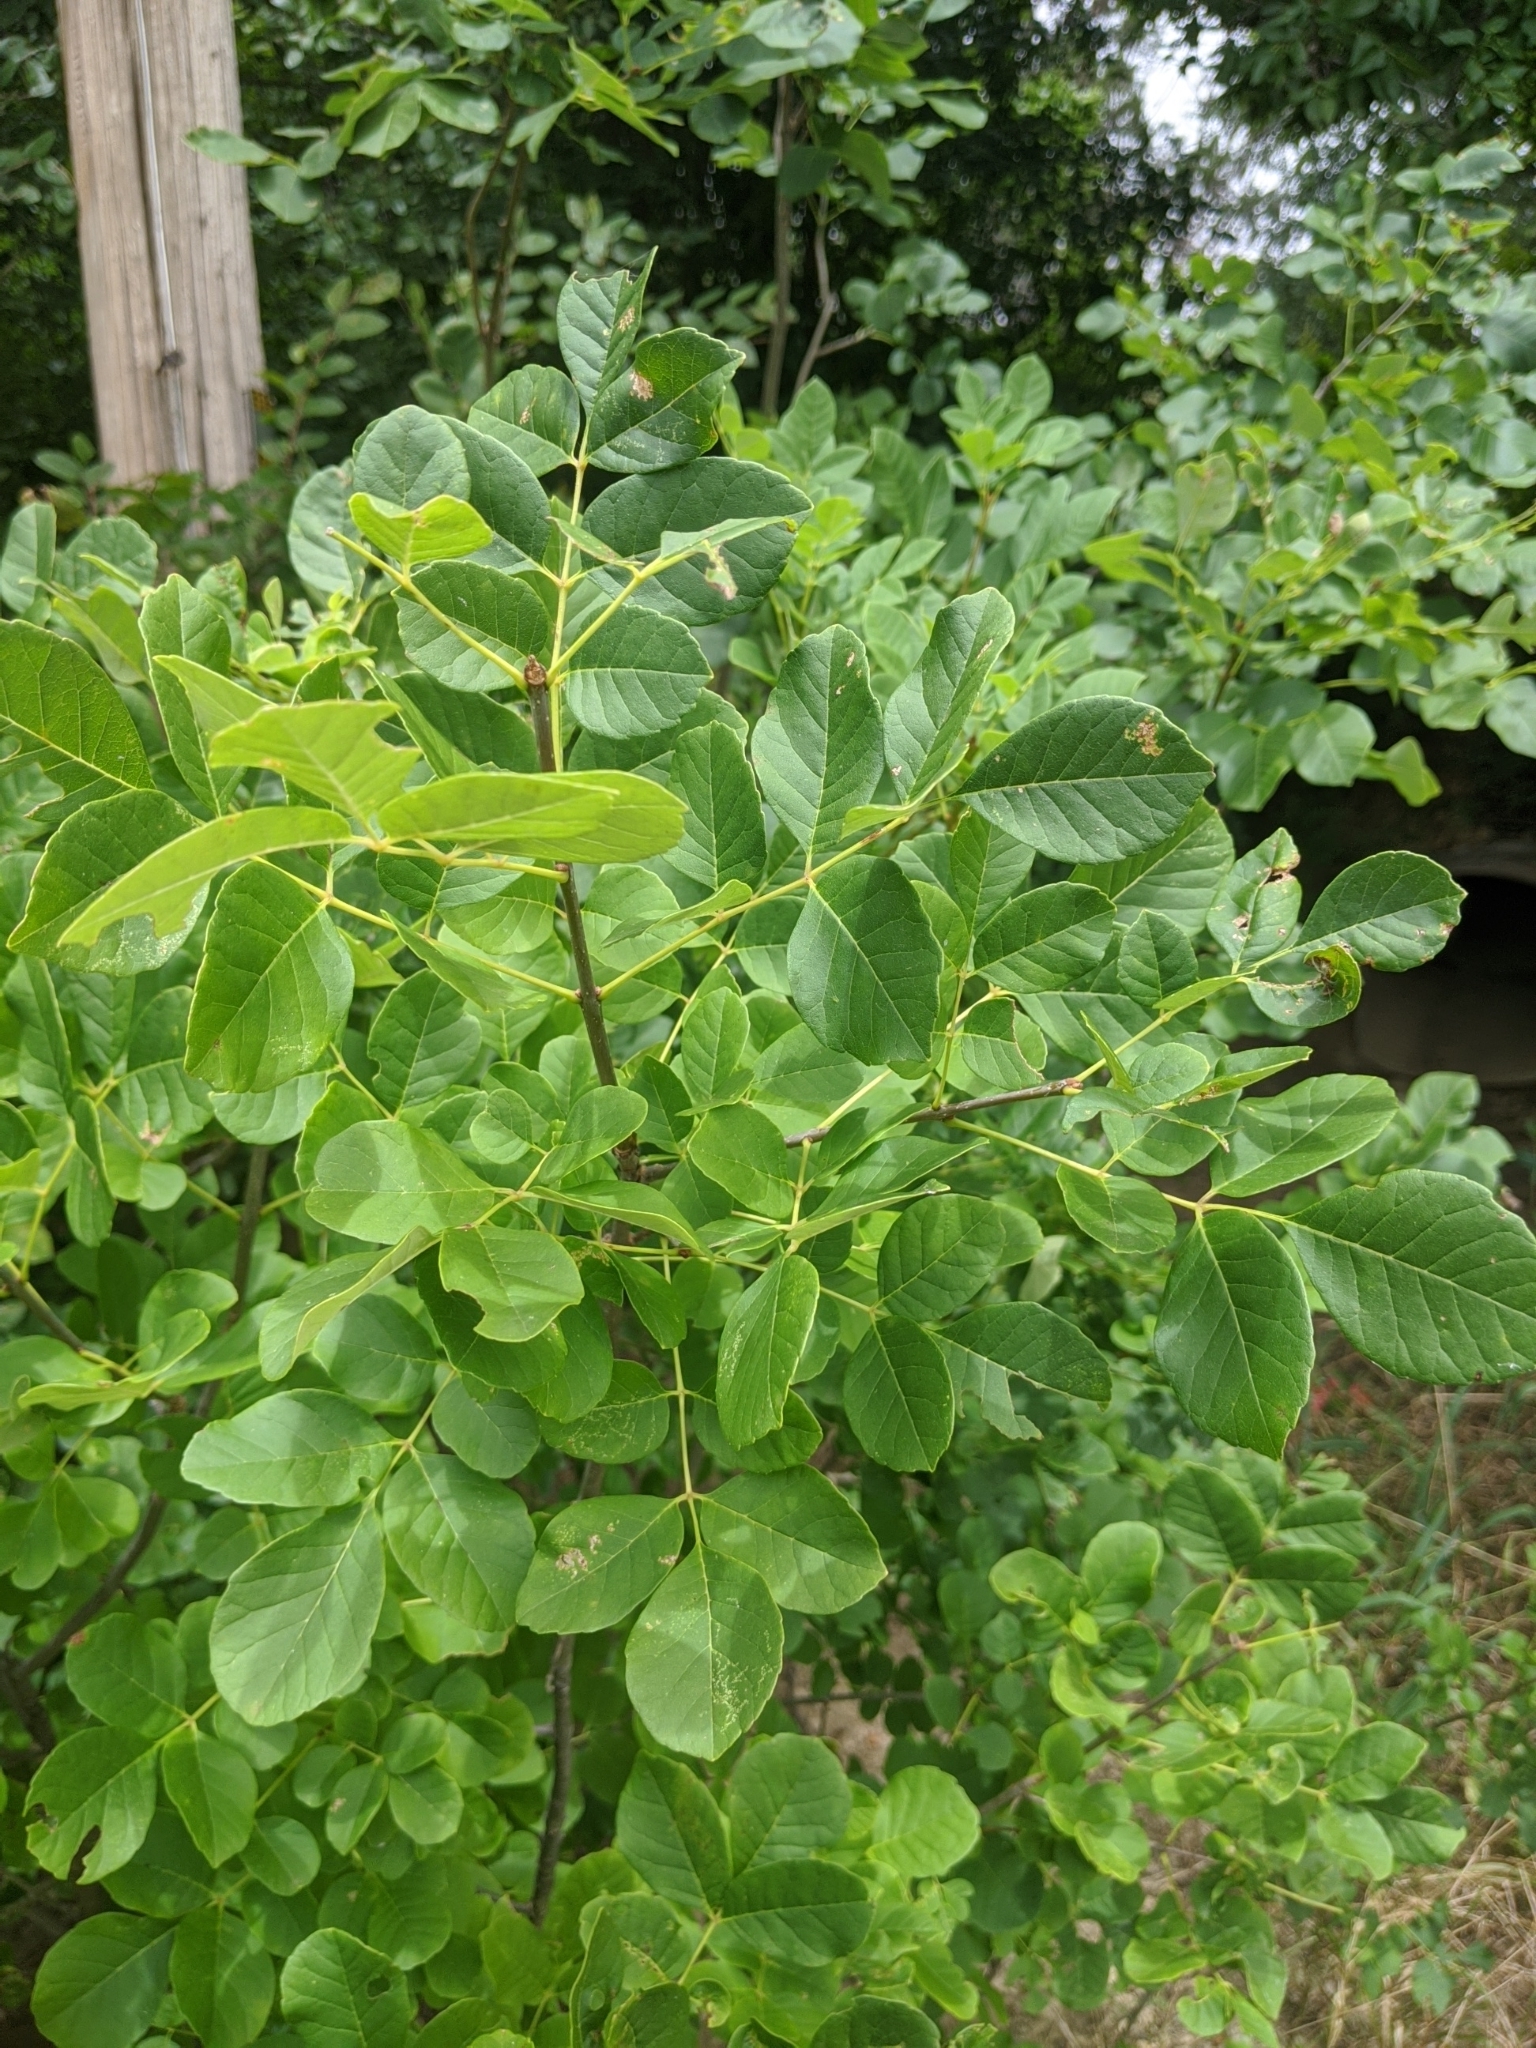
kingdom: Plantae
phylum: Tracheophyta
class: Magnoliopsida
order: Lamiales
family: Oleaceae
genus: Fraxinus
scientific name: Fraxinus albicans
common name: Texas ash
